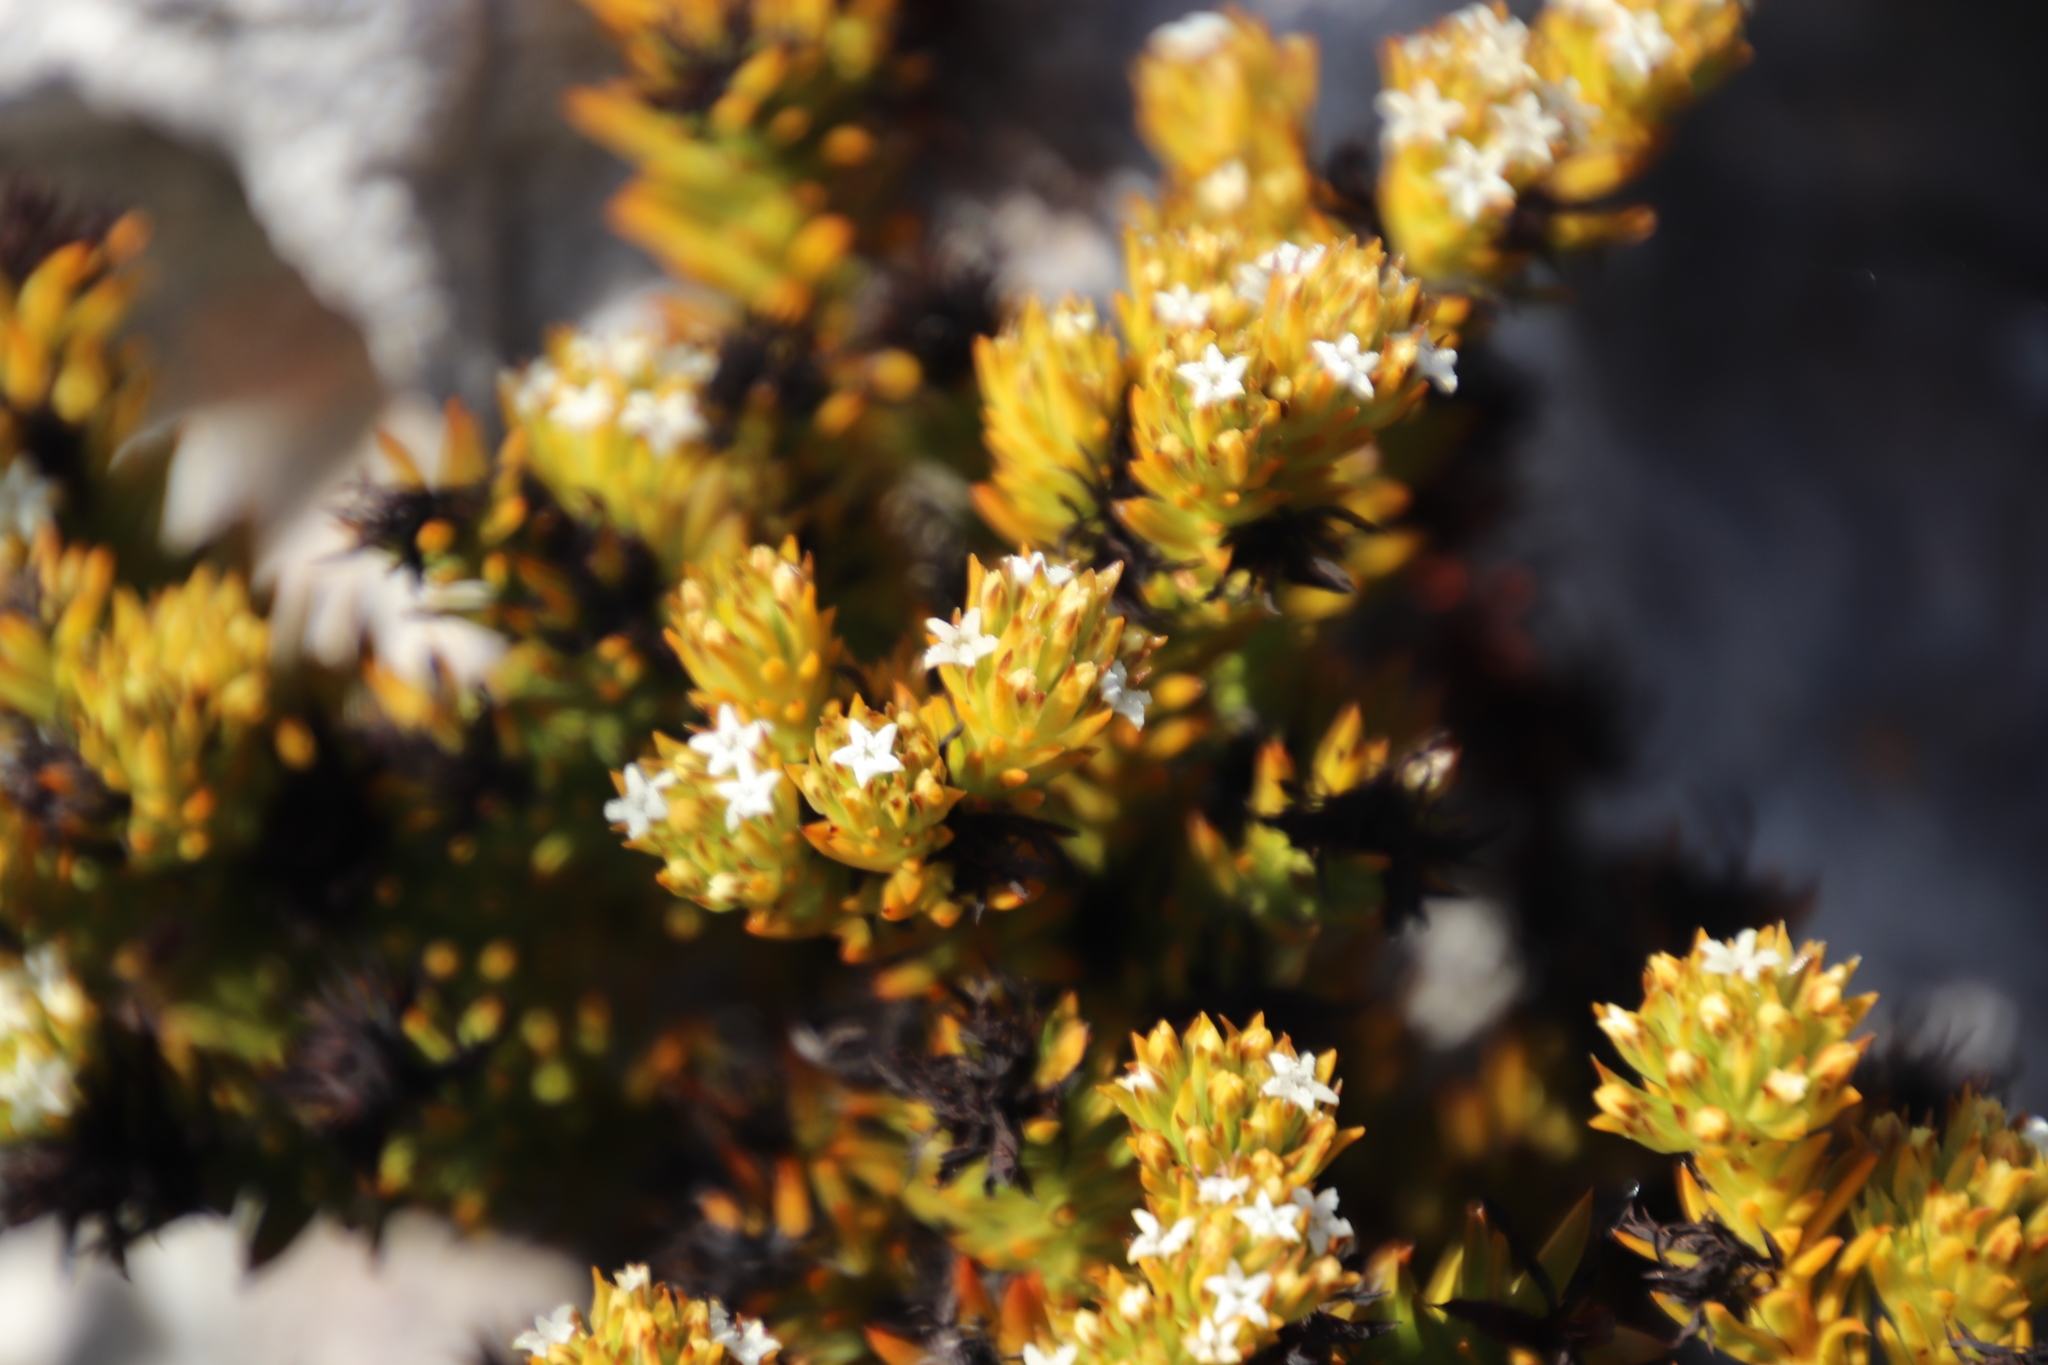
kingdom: Plantae
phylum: Tracheophyta
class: Magnoliopsida
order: Santalales
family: Thesiaceae
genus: Thesium
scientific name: Thesium viridifolium
